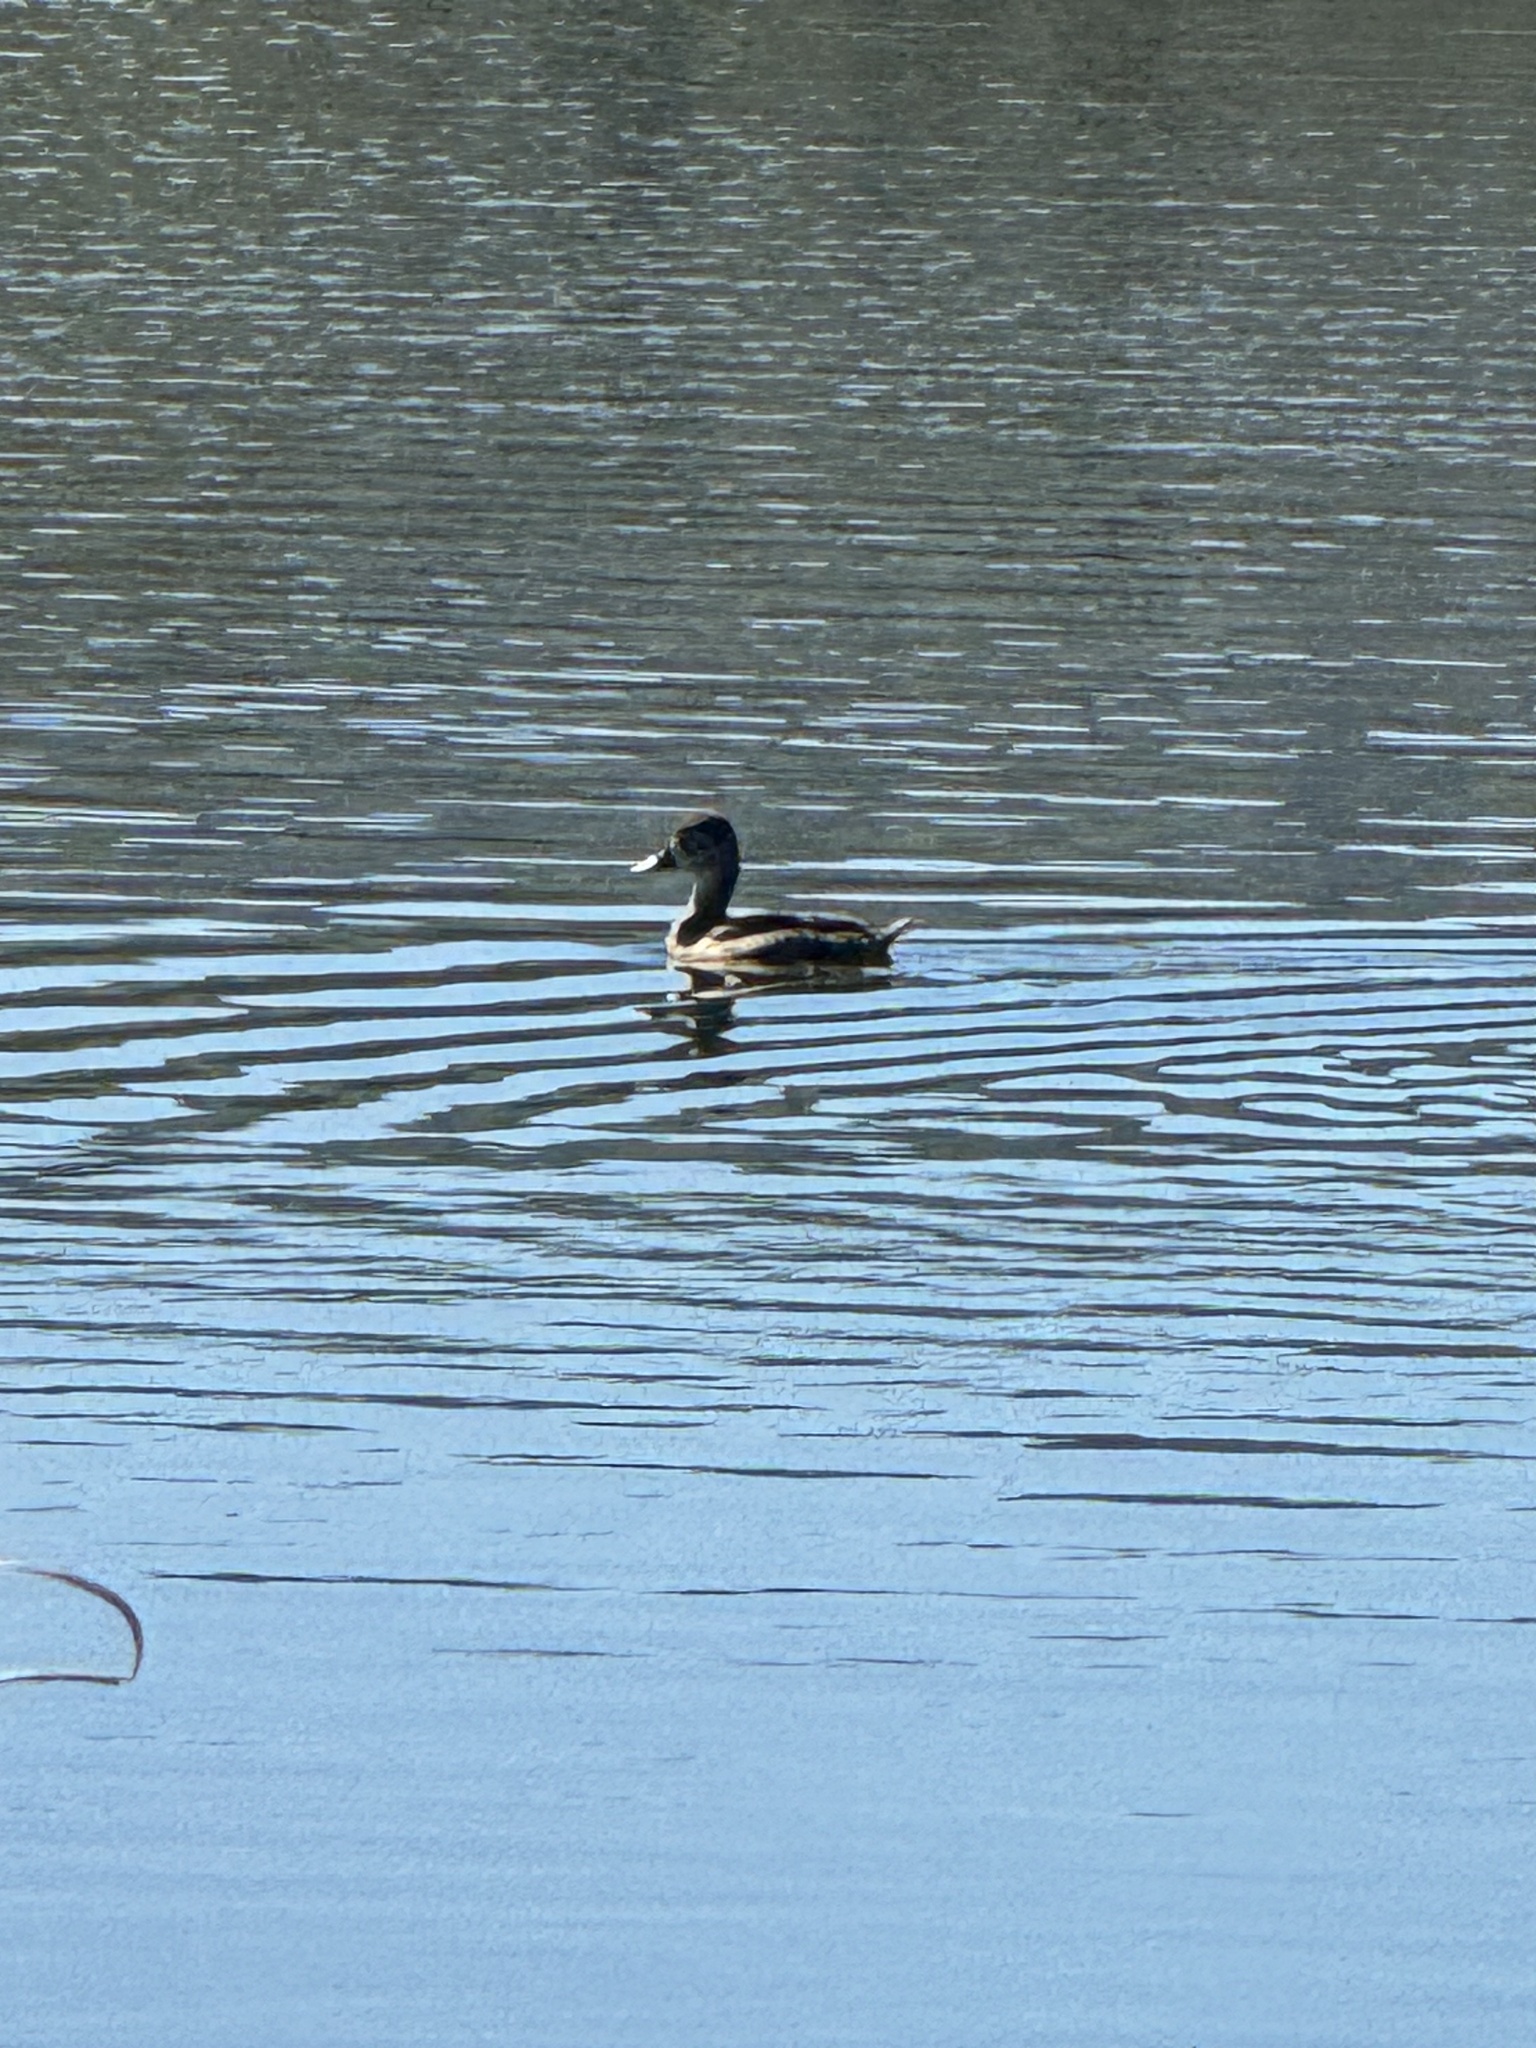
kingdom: Animalia
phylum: Chordata
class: Aves
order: Anseriformes
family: Anatidae
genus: Aythya
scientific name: Aythya collaris
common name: Ring-necked duck
